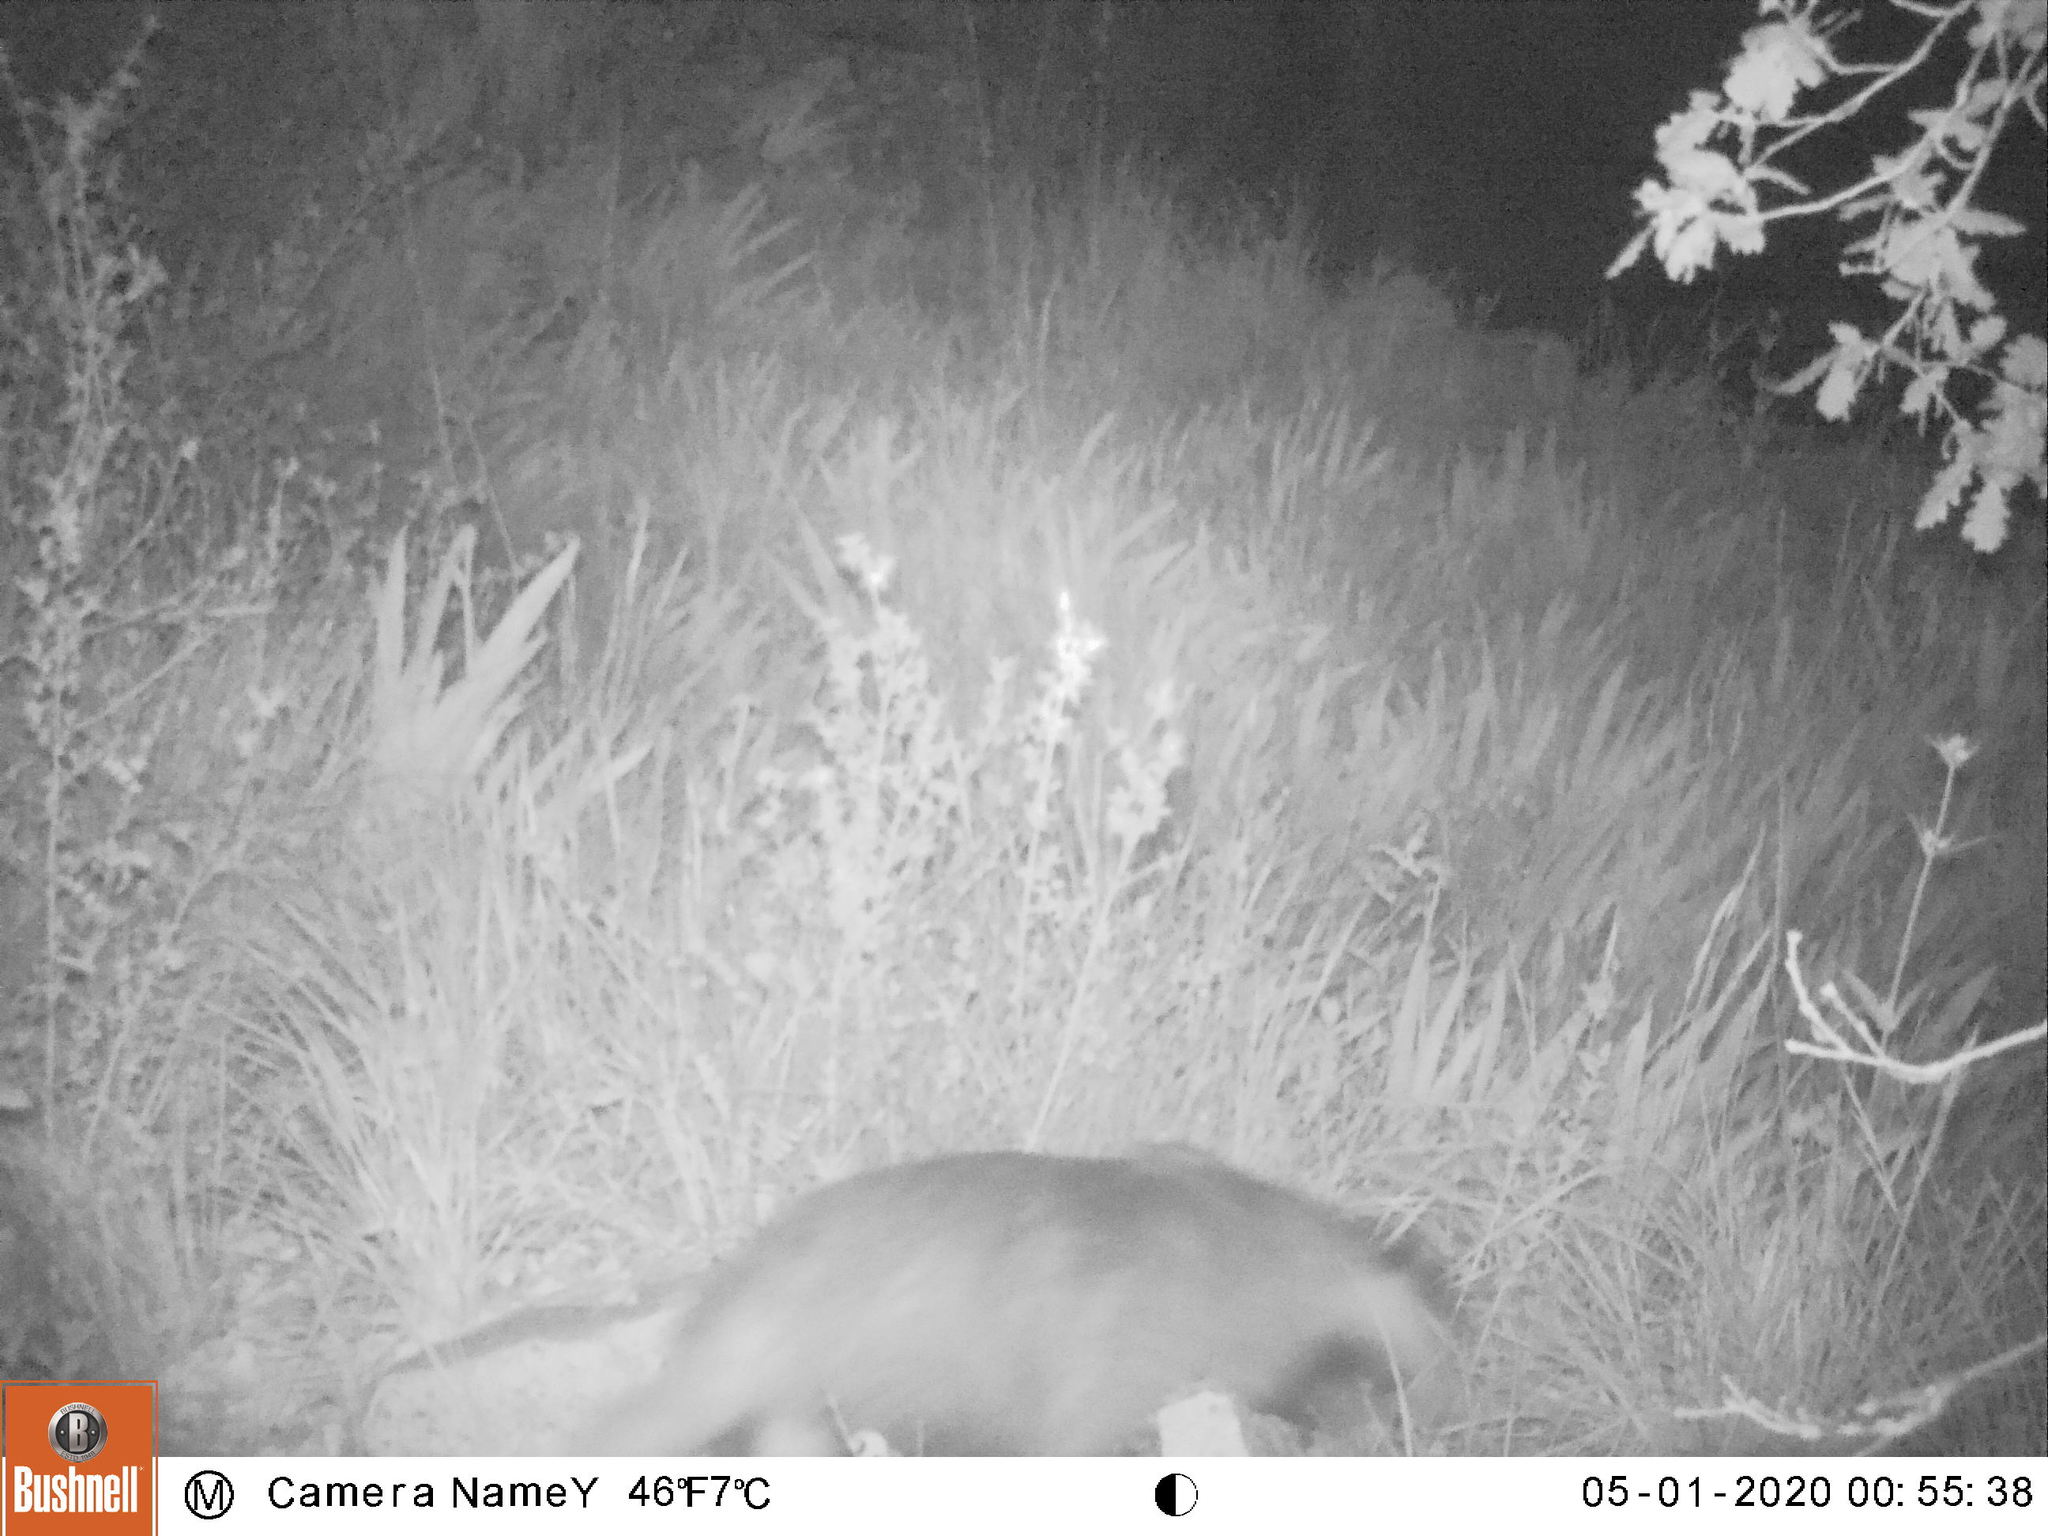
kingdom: Animalia
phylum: Chordata
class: Mammalia
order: Carnivora
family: Mustelidae
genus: Meles
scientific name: Meles meles
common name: Eurasian badger
